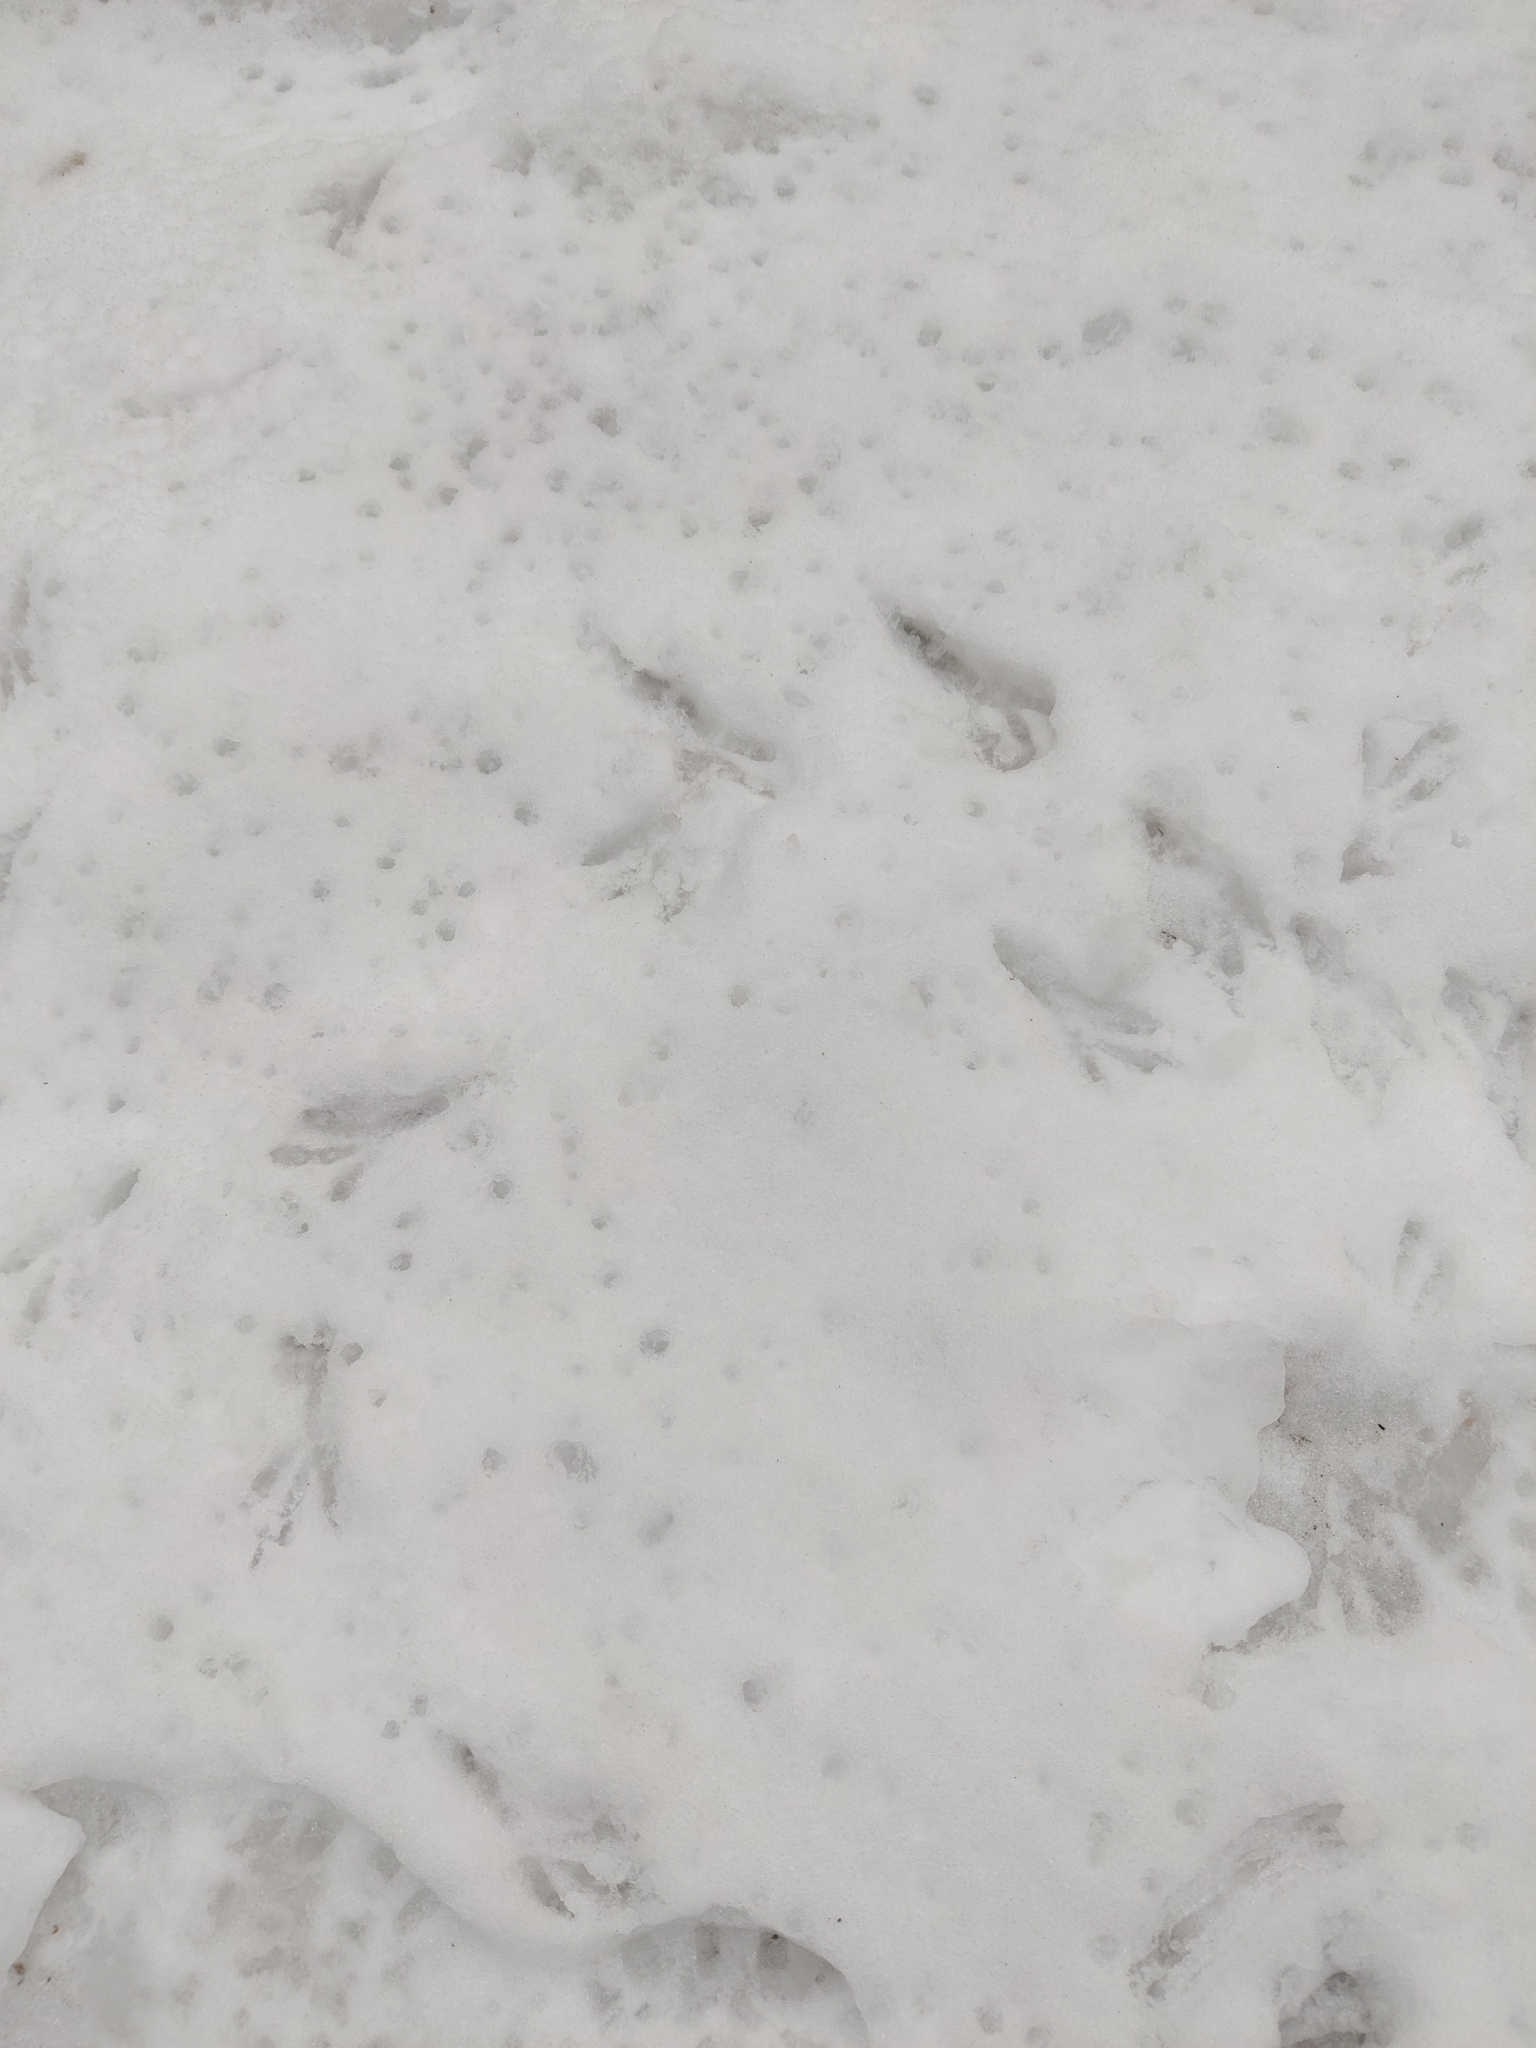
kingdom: Animalia
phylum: Chordata
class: Aves
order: Passeriformes
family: Corvidae
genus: Corvus
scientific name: Corvus cornix
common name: Hooded crow
